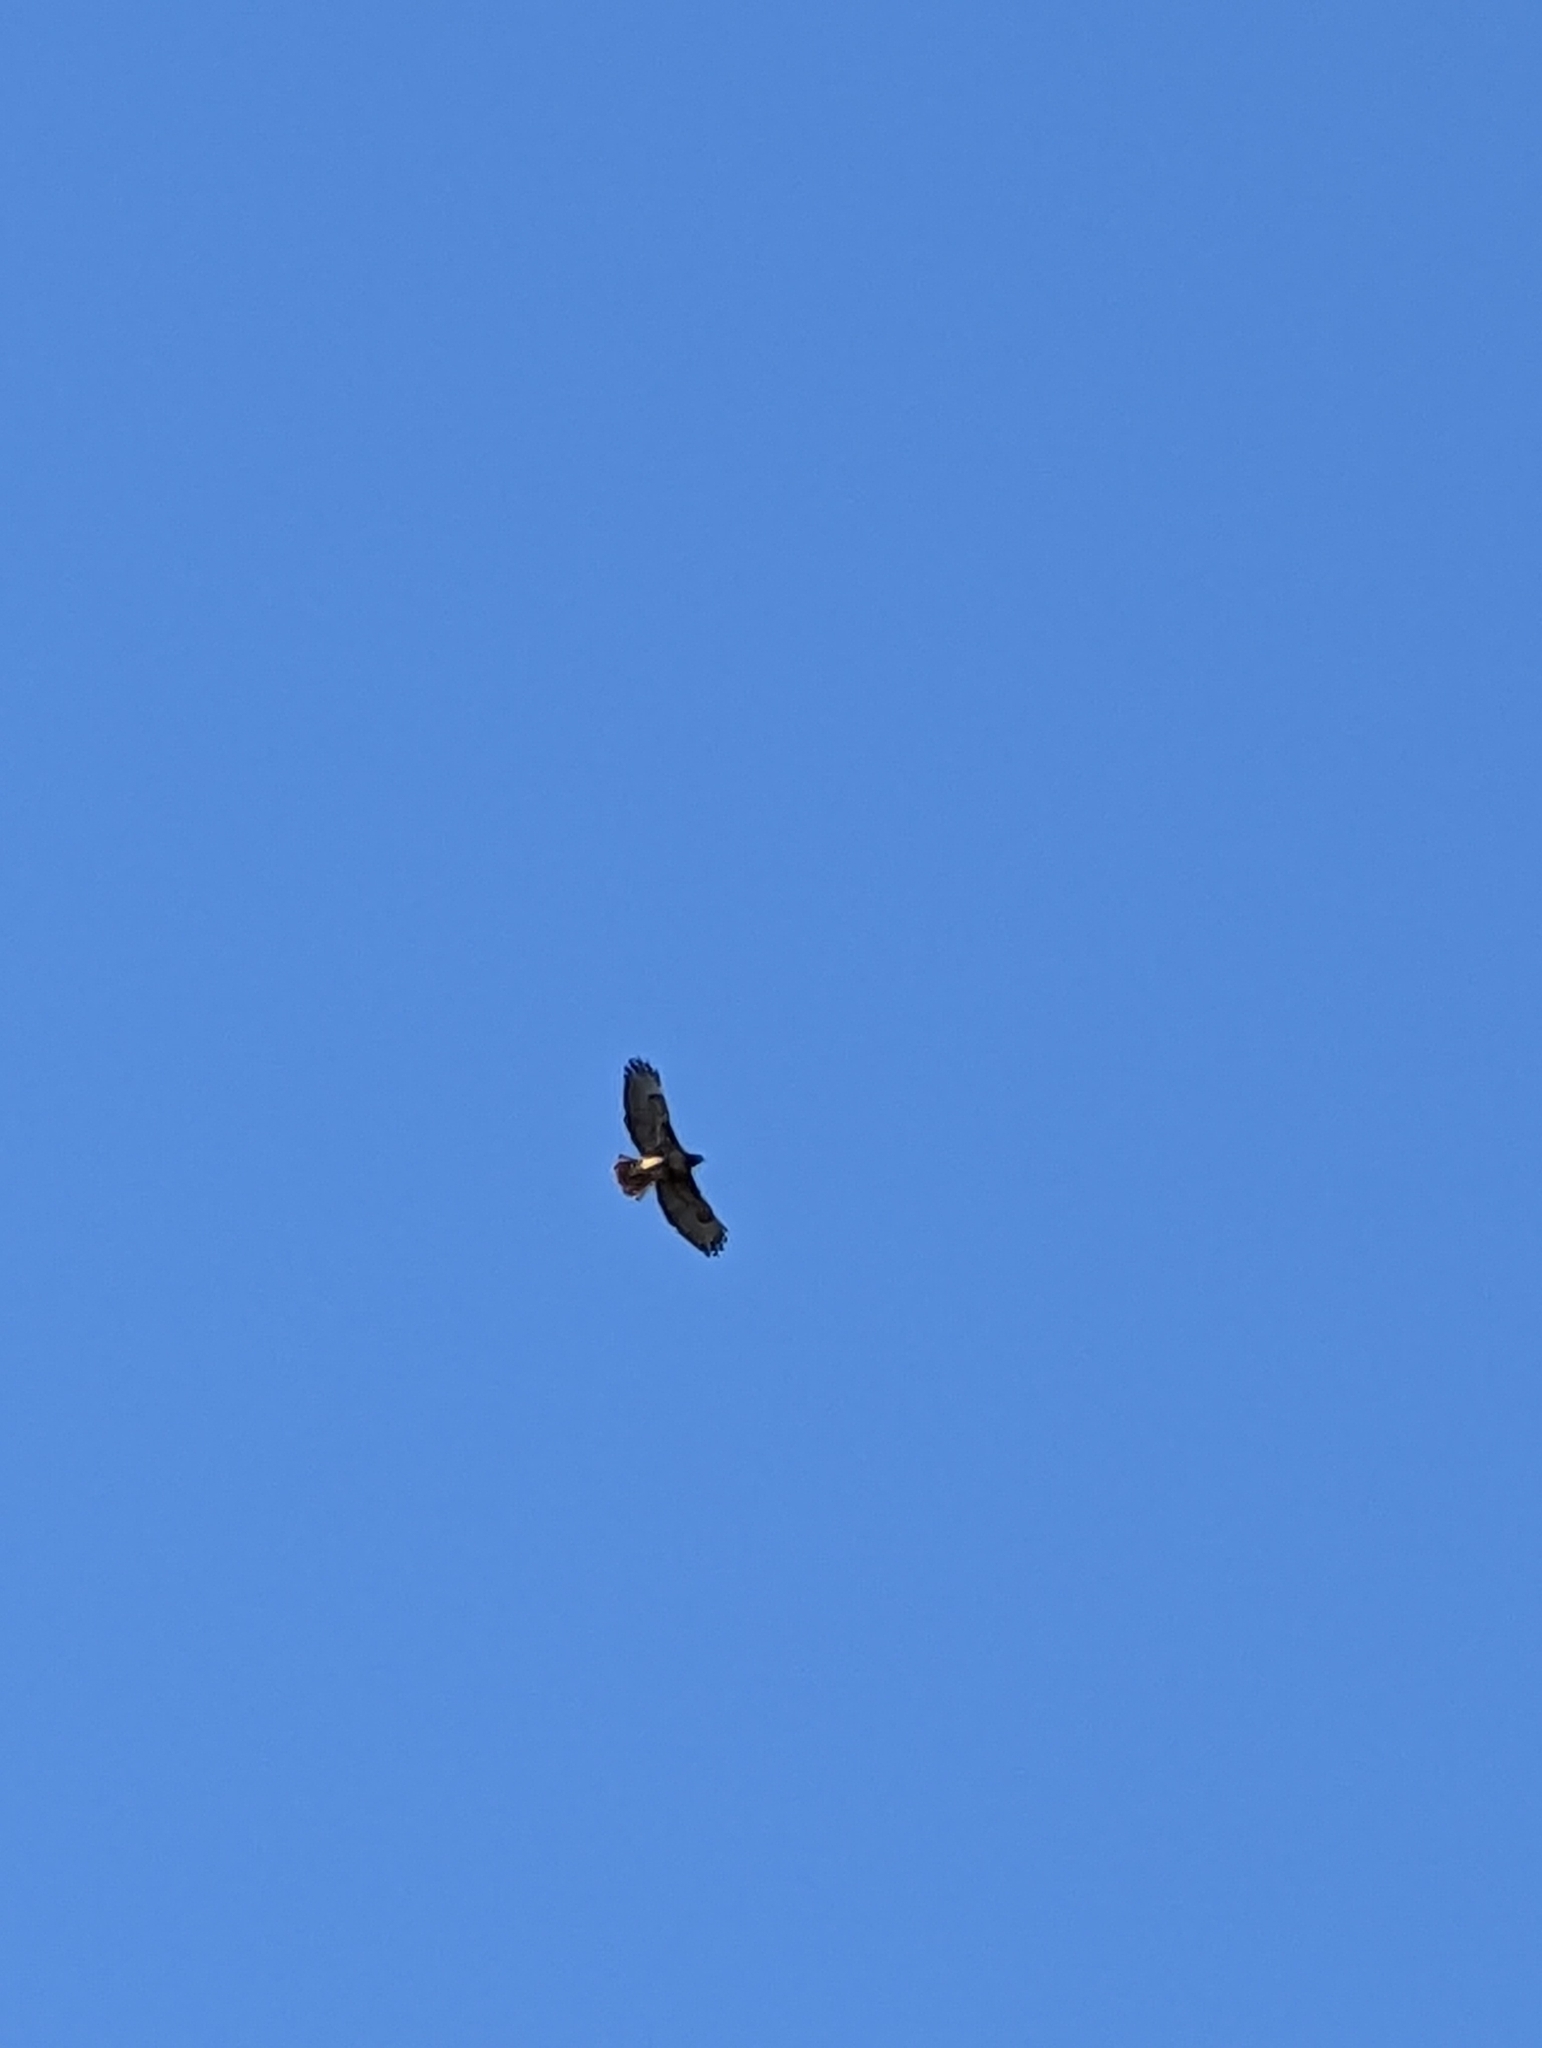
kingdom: Animalia
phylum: Chordata
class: Aves
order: Accipitriformes
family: Accipitridae
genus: Buteo
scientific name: Buteo jamaicensis
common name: Red-tailed hawk
